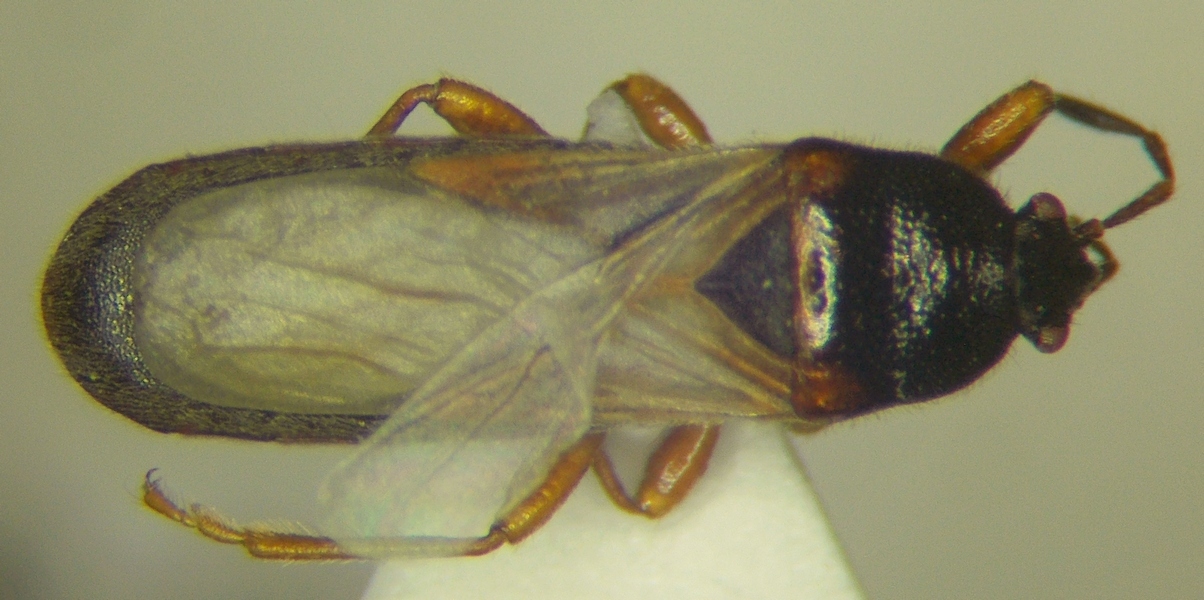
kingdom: Animalia
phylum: Arthropoda
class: Insecta
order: Hemiptera
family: Blissidae
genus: Dimorphopterus
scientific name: Dimorphopterus blissoides
